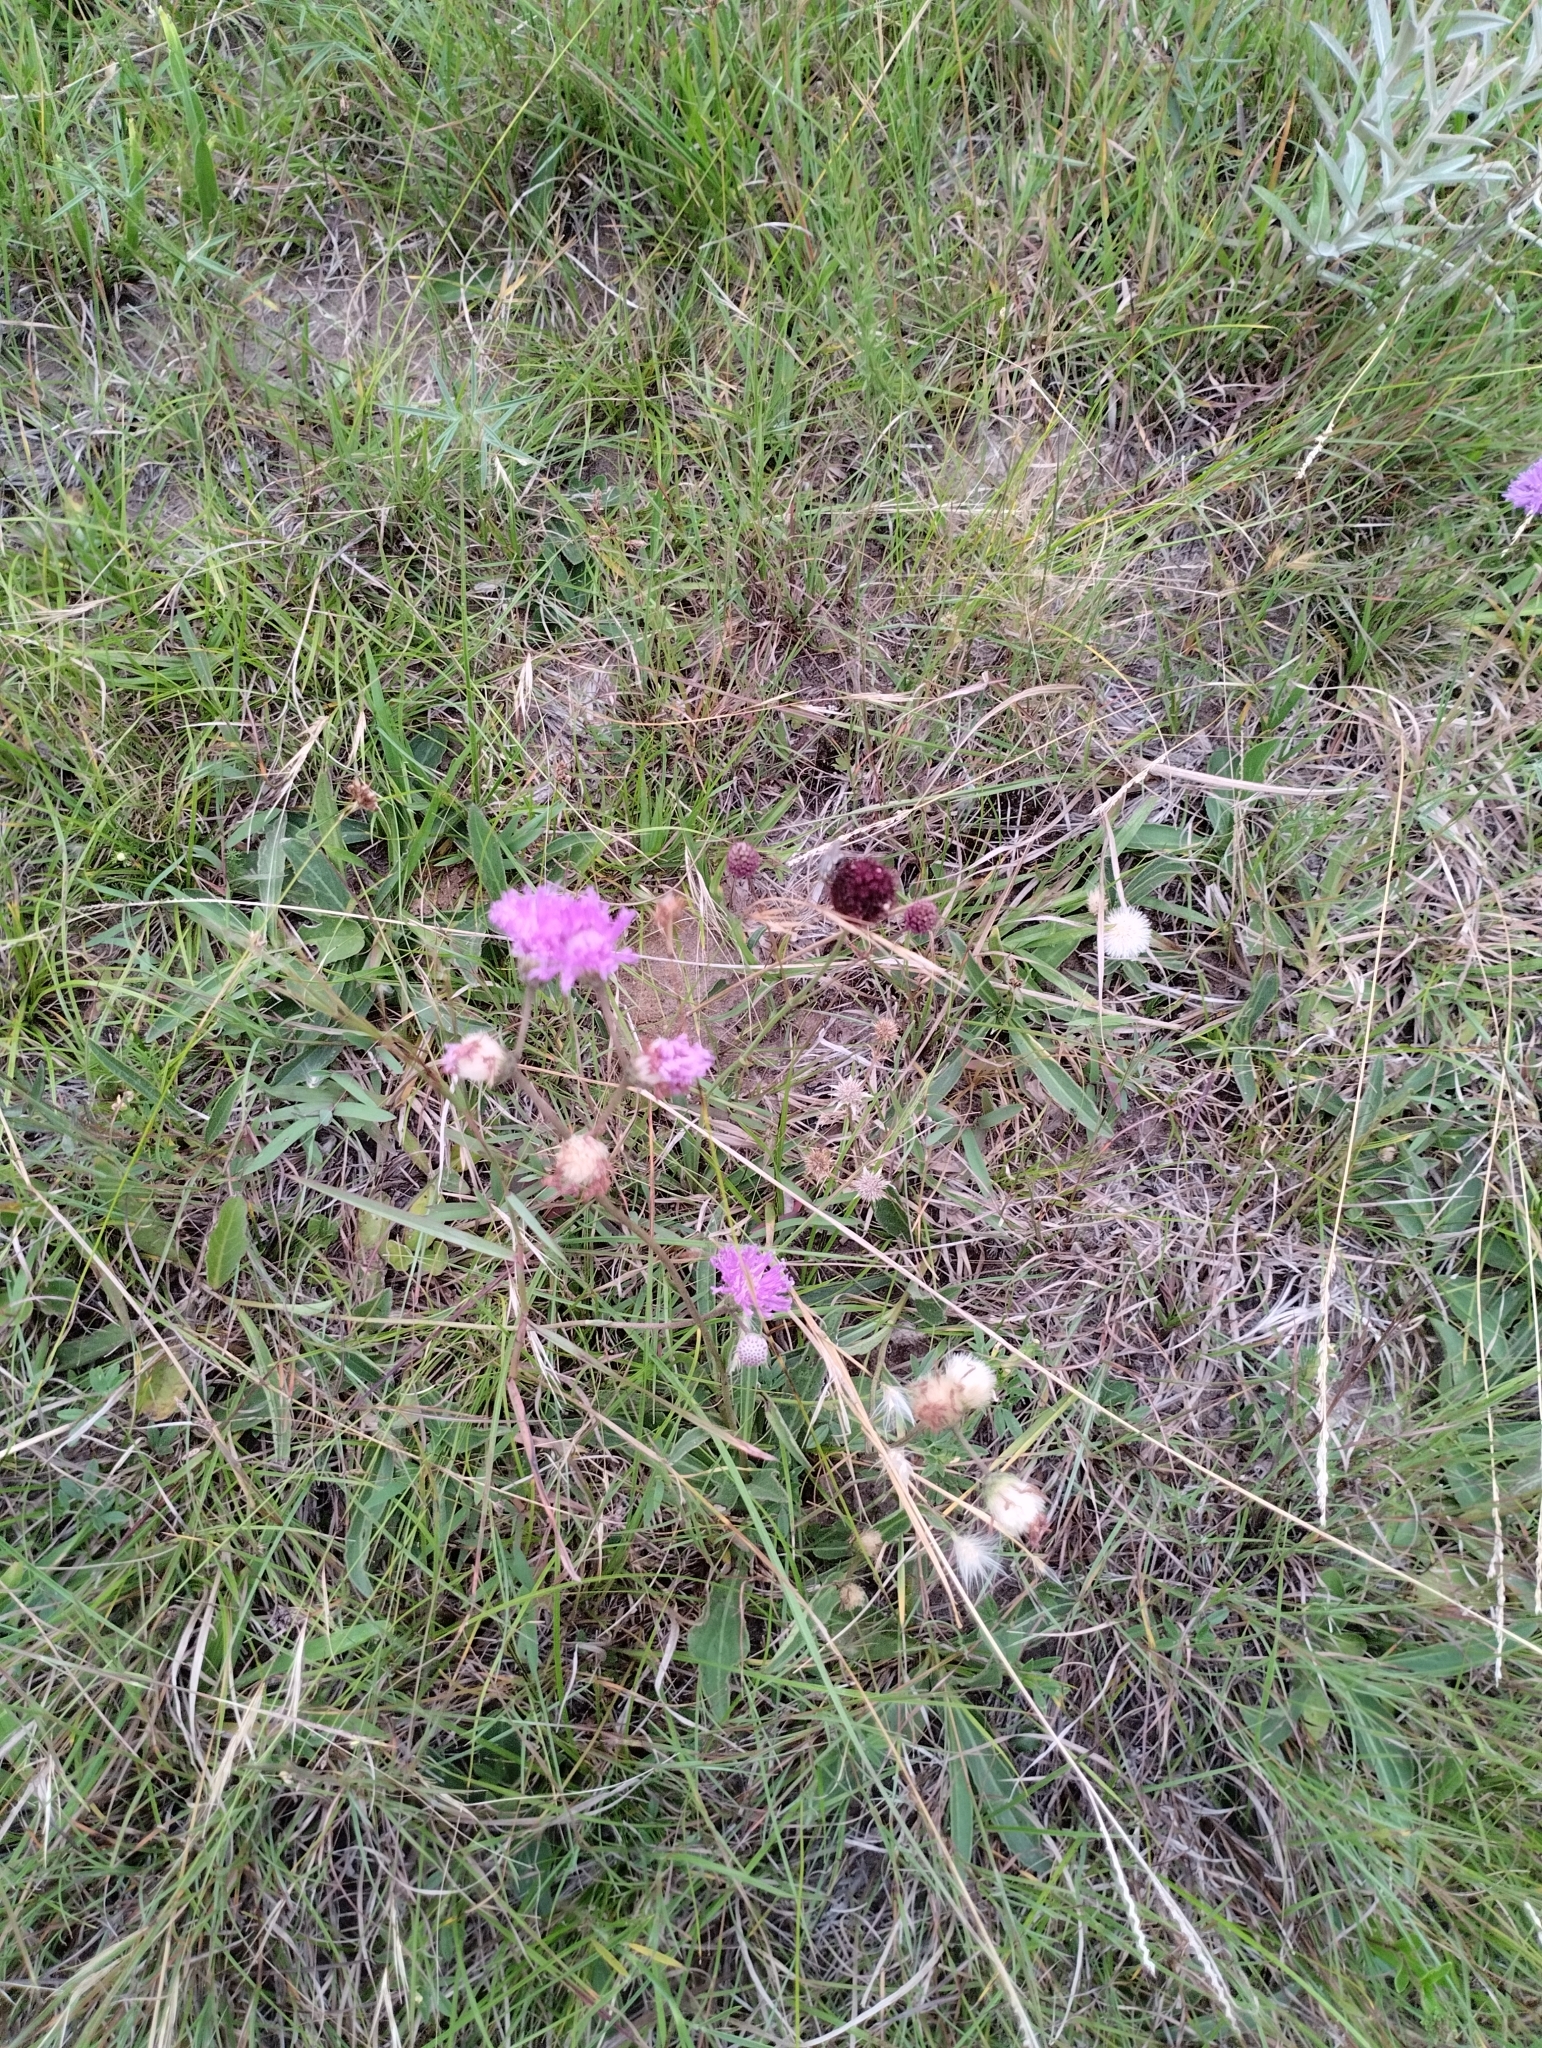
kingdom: Plantae
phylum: Tracheophyta
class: Magnoliopsida
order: Asterales
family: Asteraceae
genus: Chrysolaena
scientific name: Chrysolaena flexuosa
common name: Zig-zag vernonia
